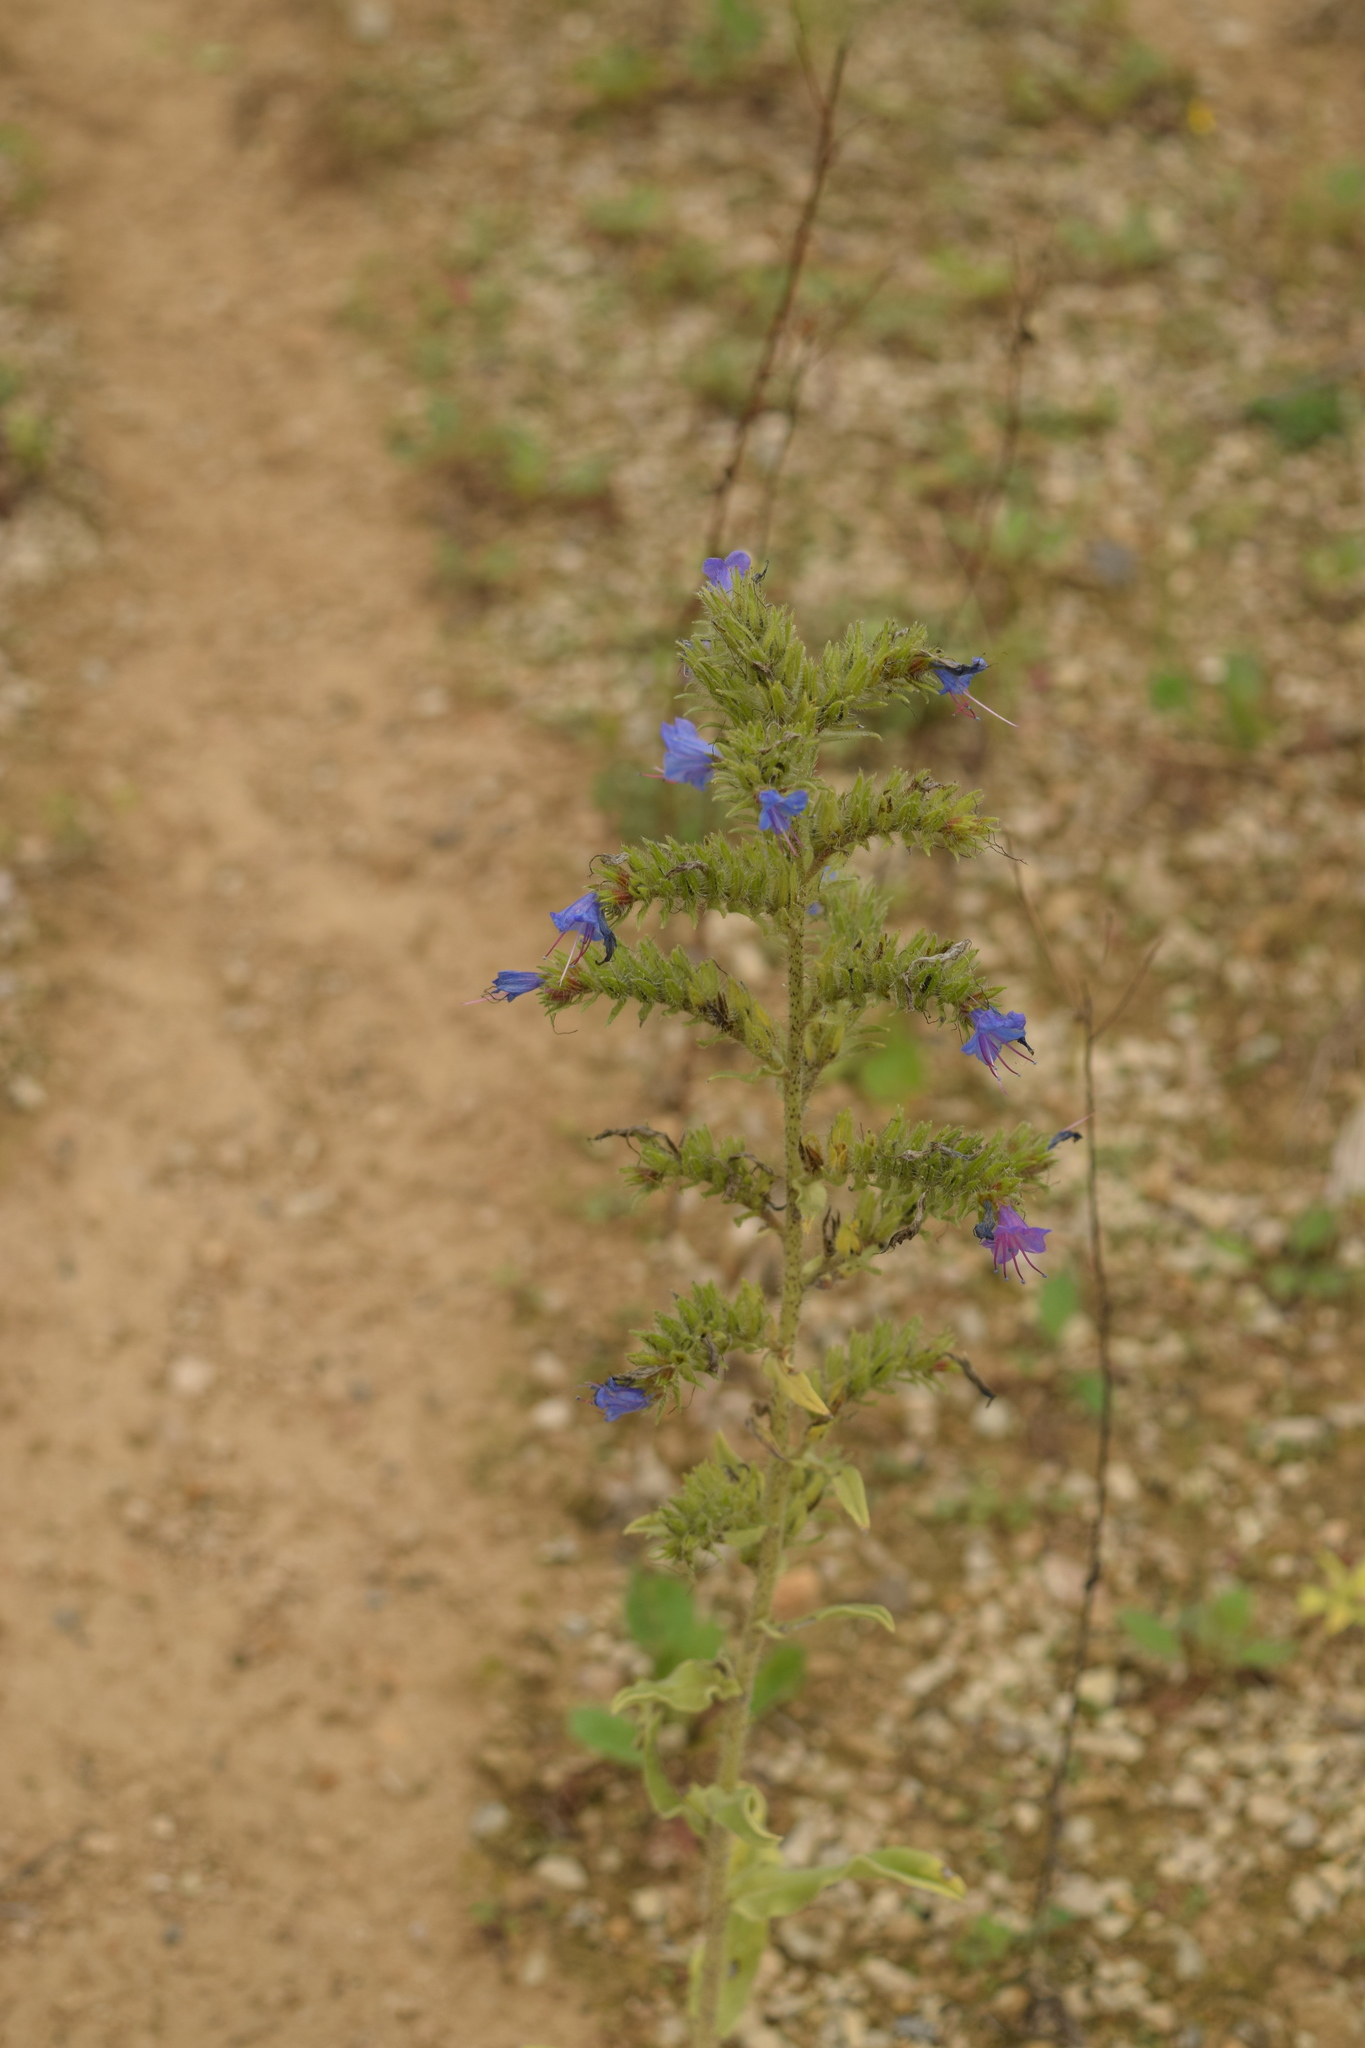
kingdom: Plantae
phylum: Tracheophyta
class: Magnoliopsida
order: Boraginales
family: Boraginaceae
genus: Echium
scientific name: Echium vulgare
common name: Common viper's bugloss
